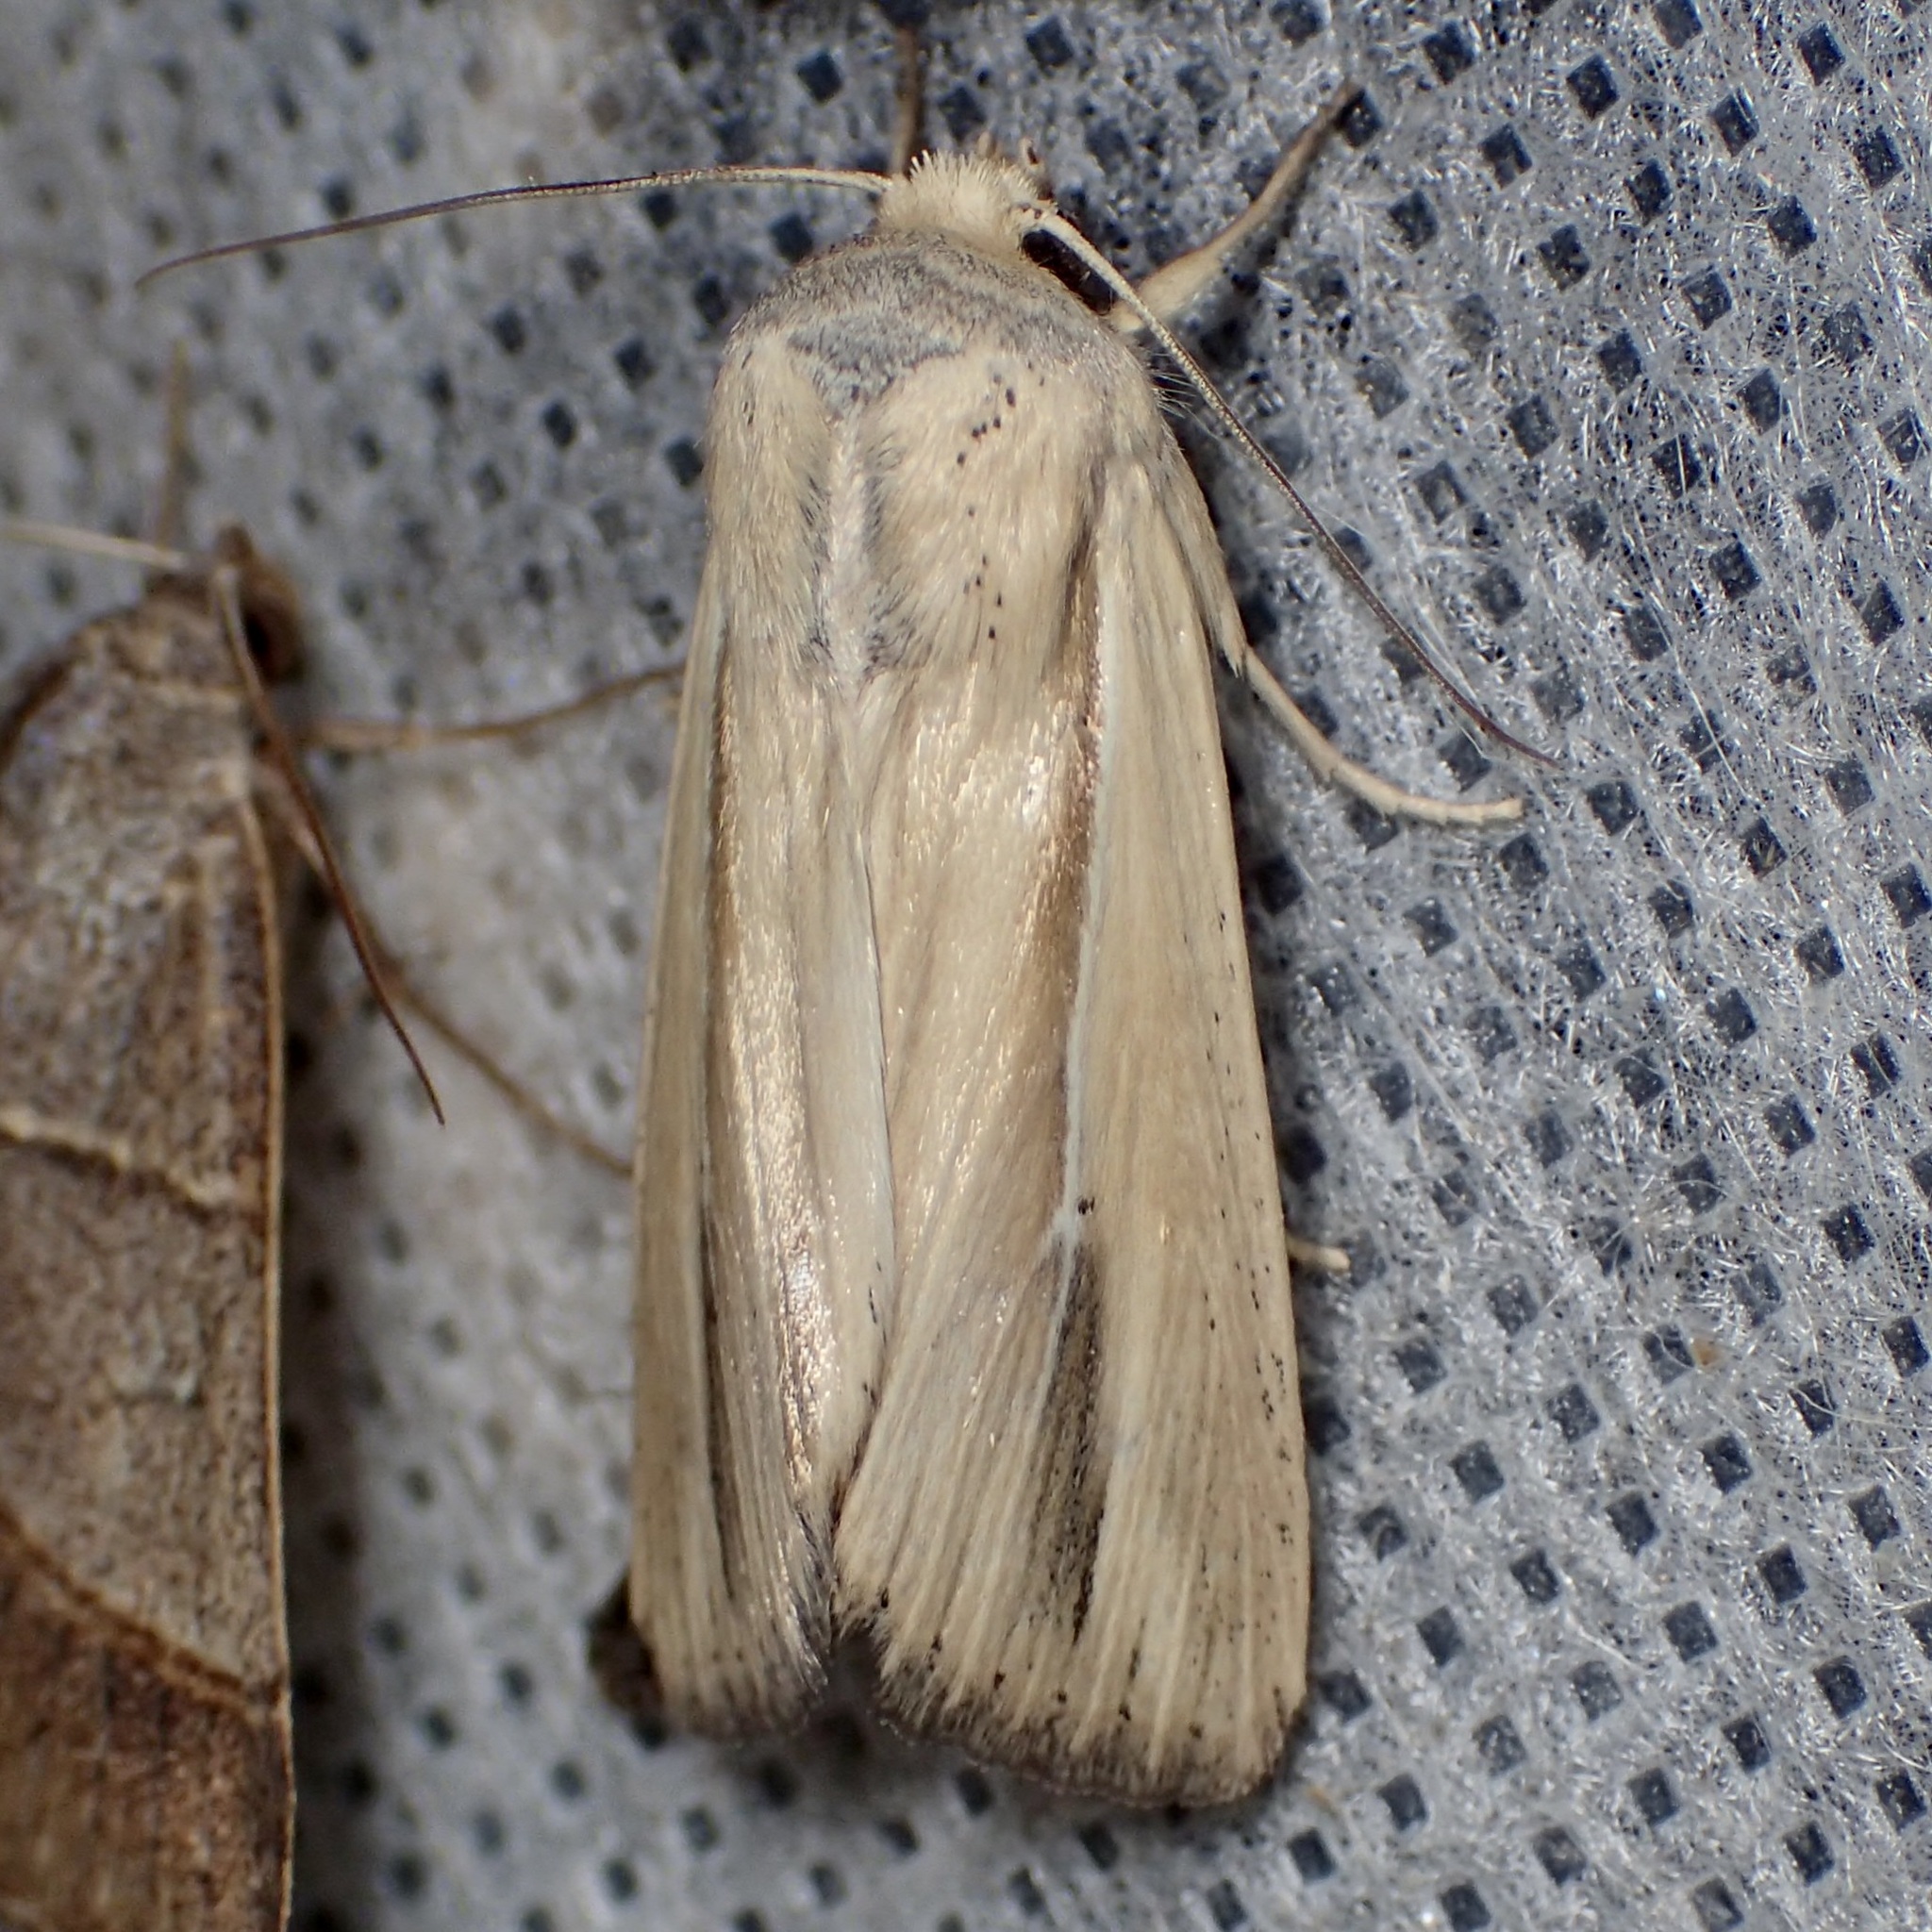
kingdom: Animalia
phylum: Arthropoda
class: Insecta
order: Lepidoptera
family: Noctuidae
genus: Leucania
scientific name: Leucania stolata
